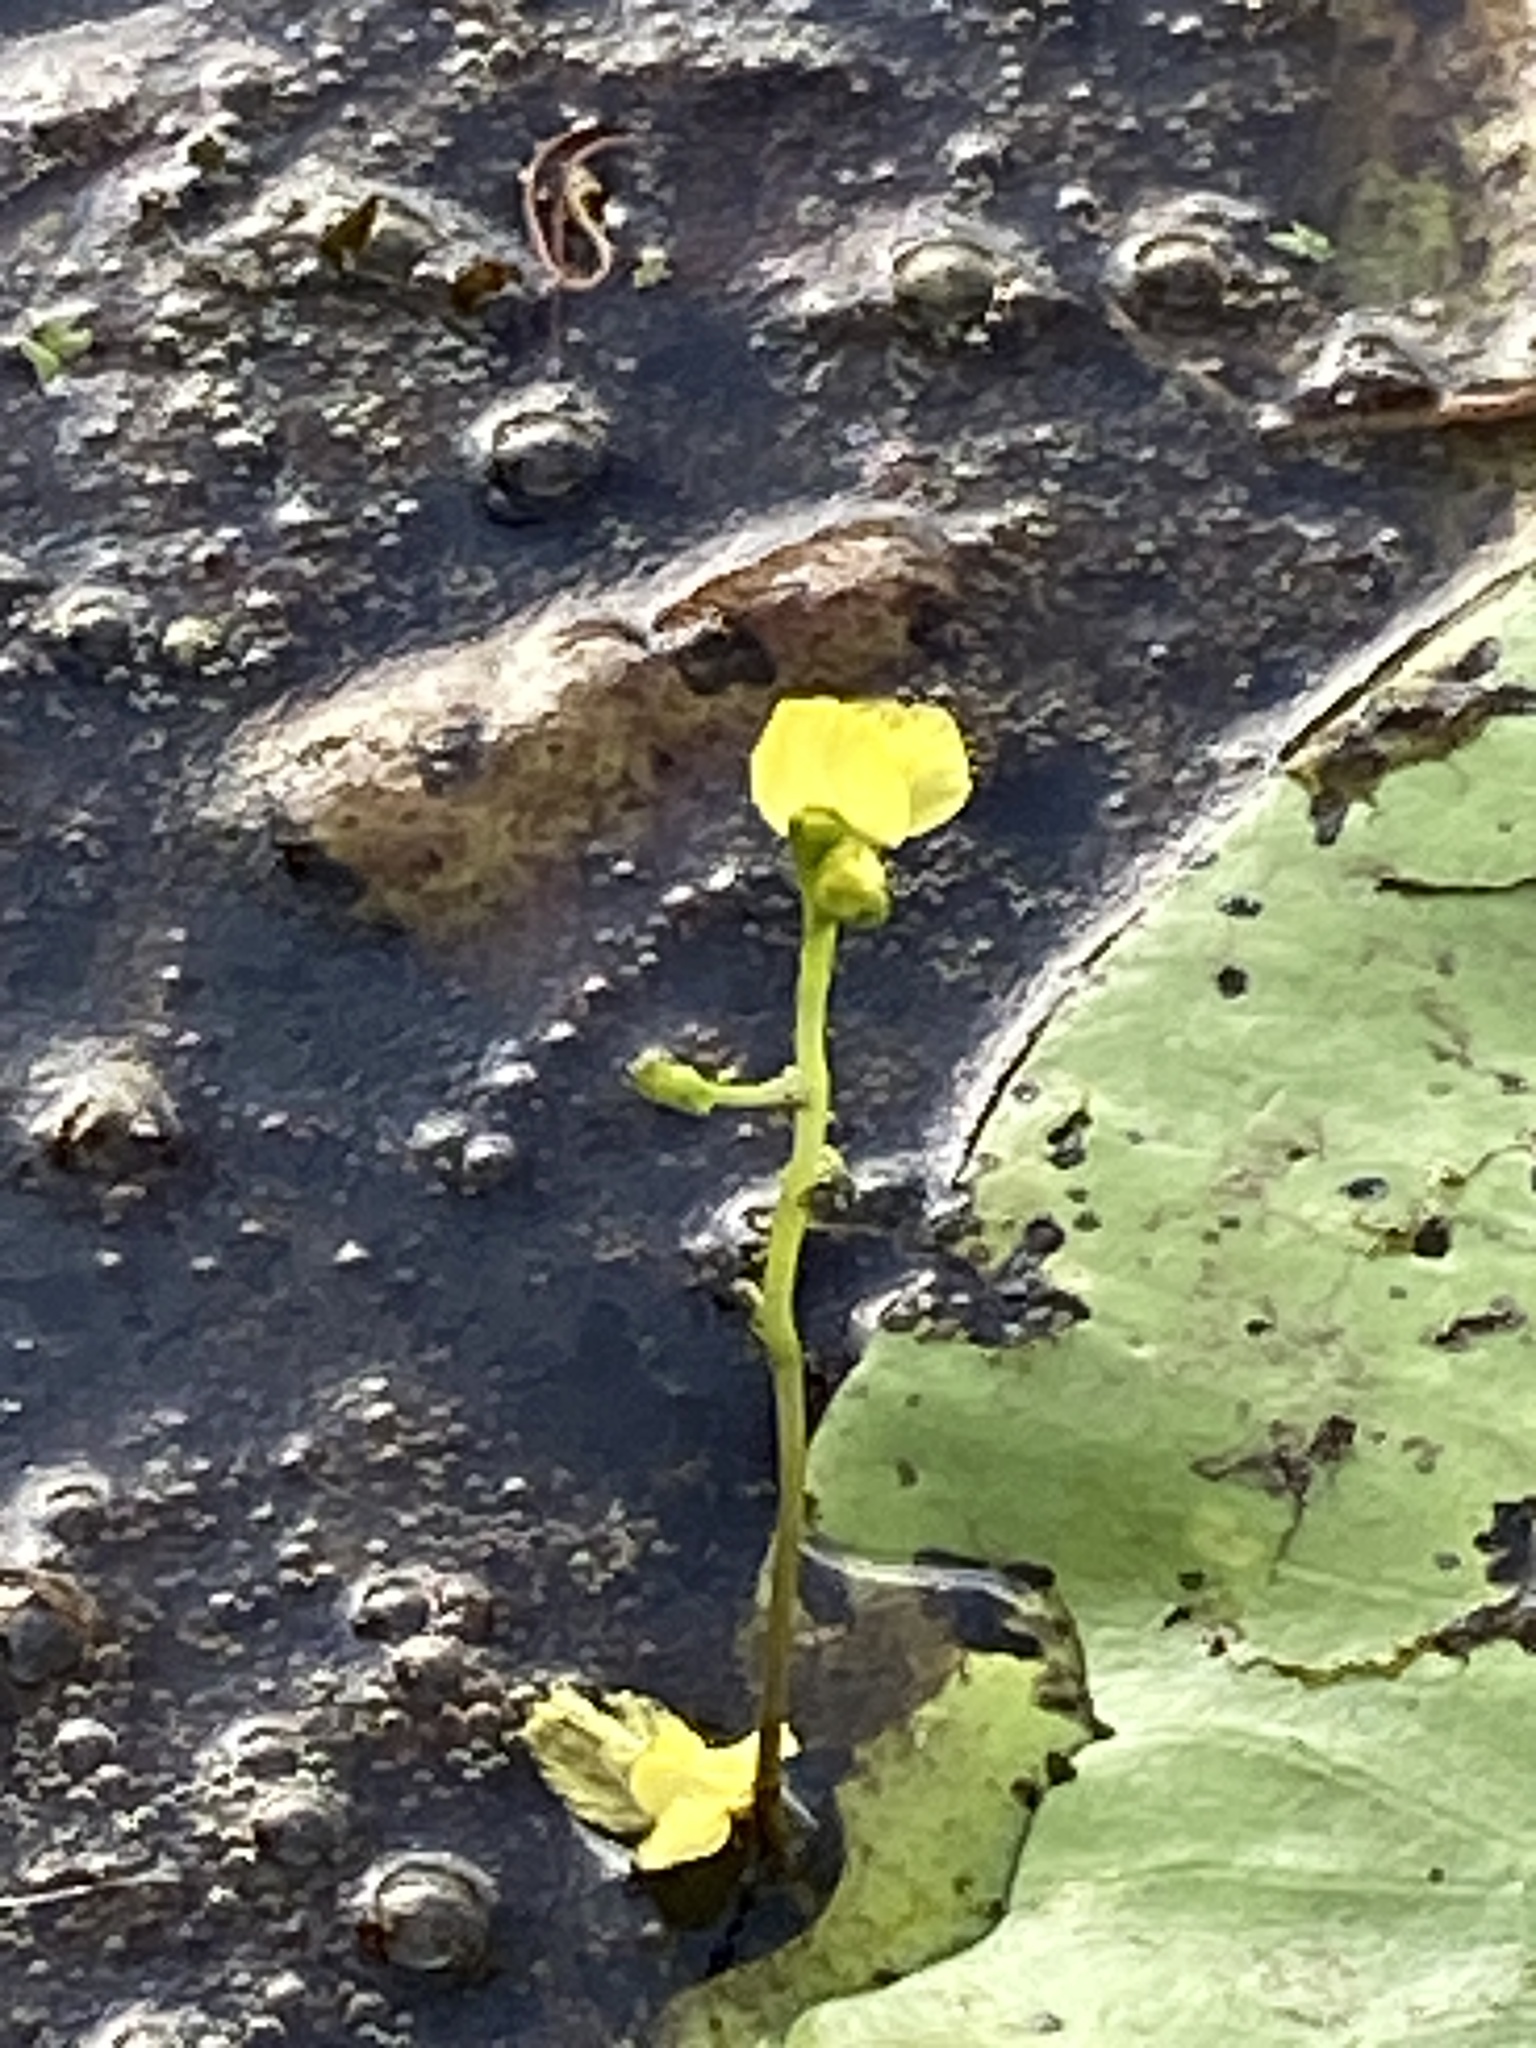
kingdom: Plantae
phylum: Tracheophyta
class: Magnoliopsida
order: Lamiales
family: Lentibulariaceae
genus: Utricularia
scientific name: Utricularia aurea
